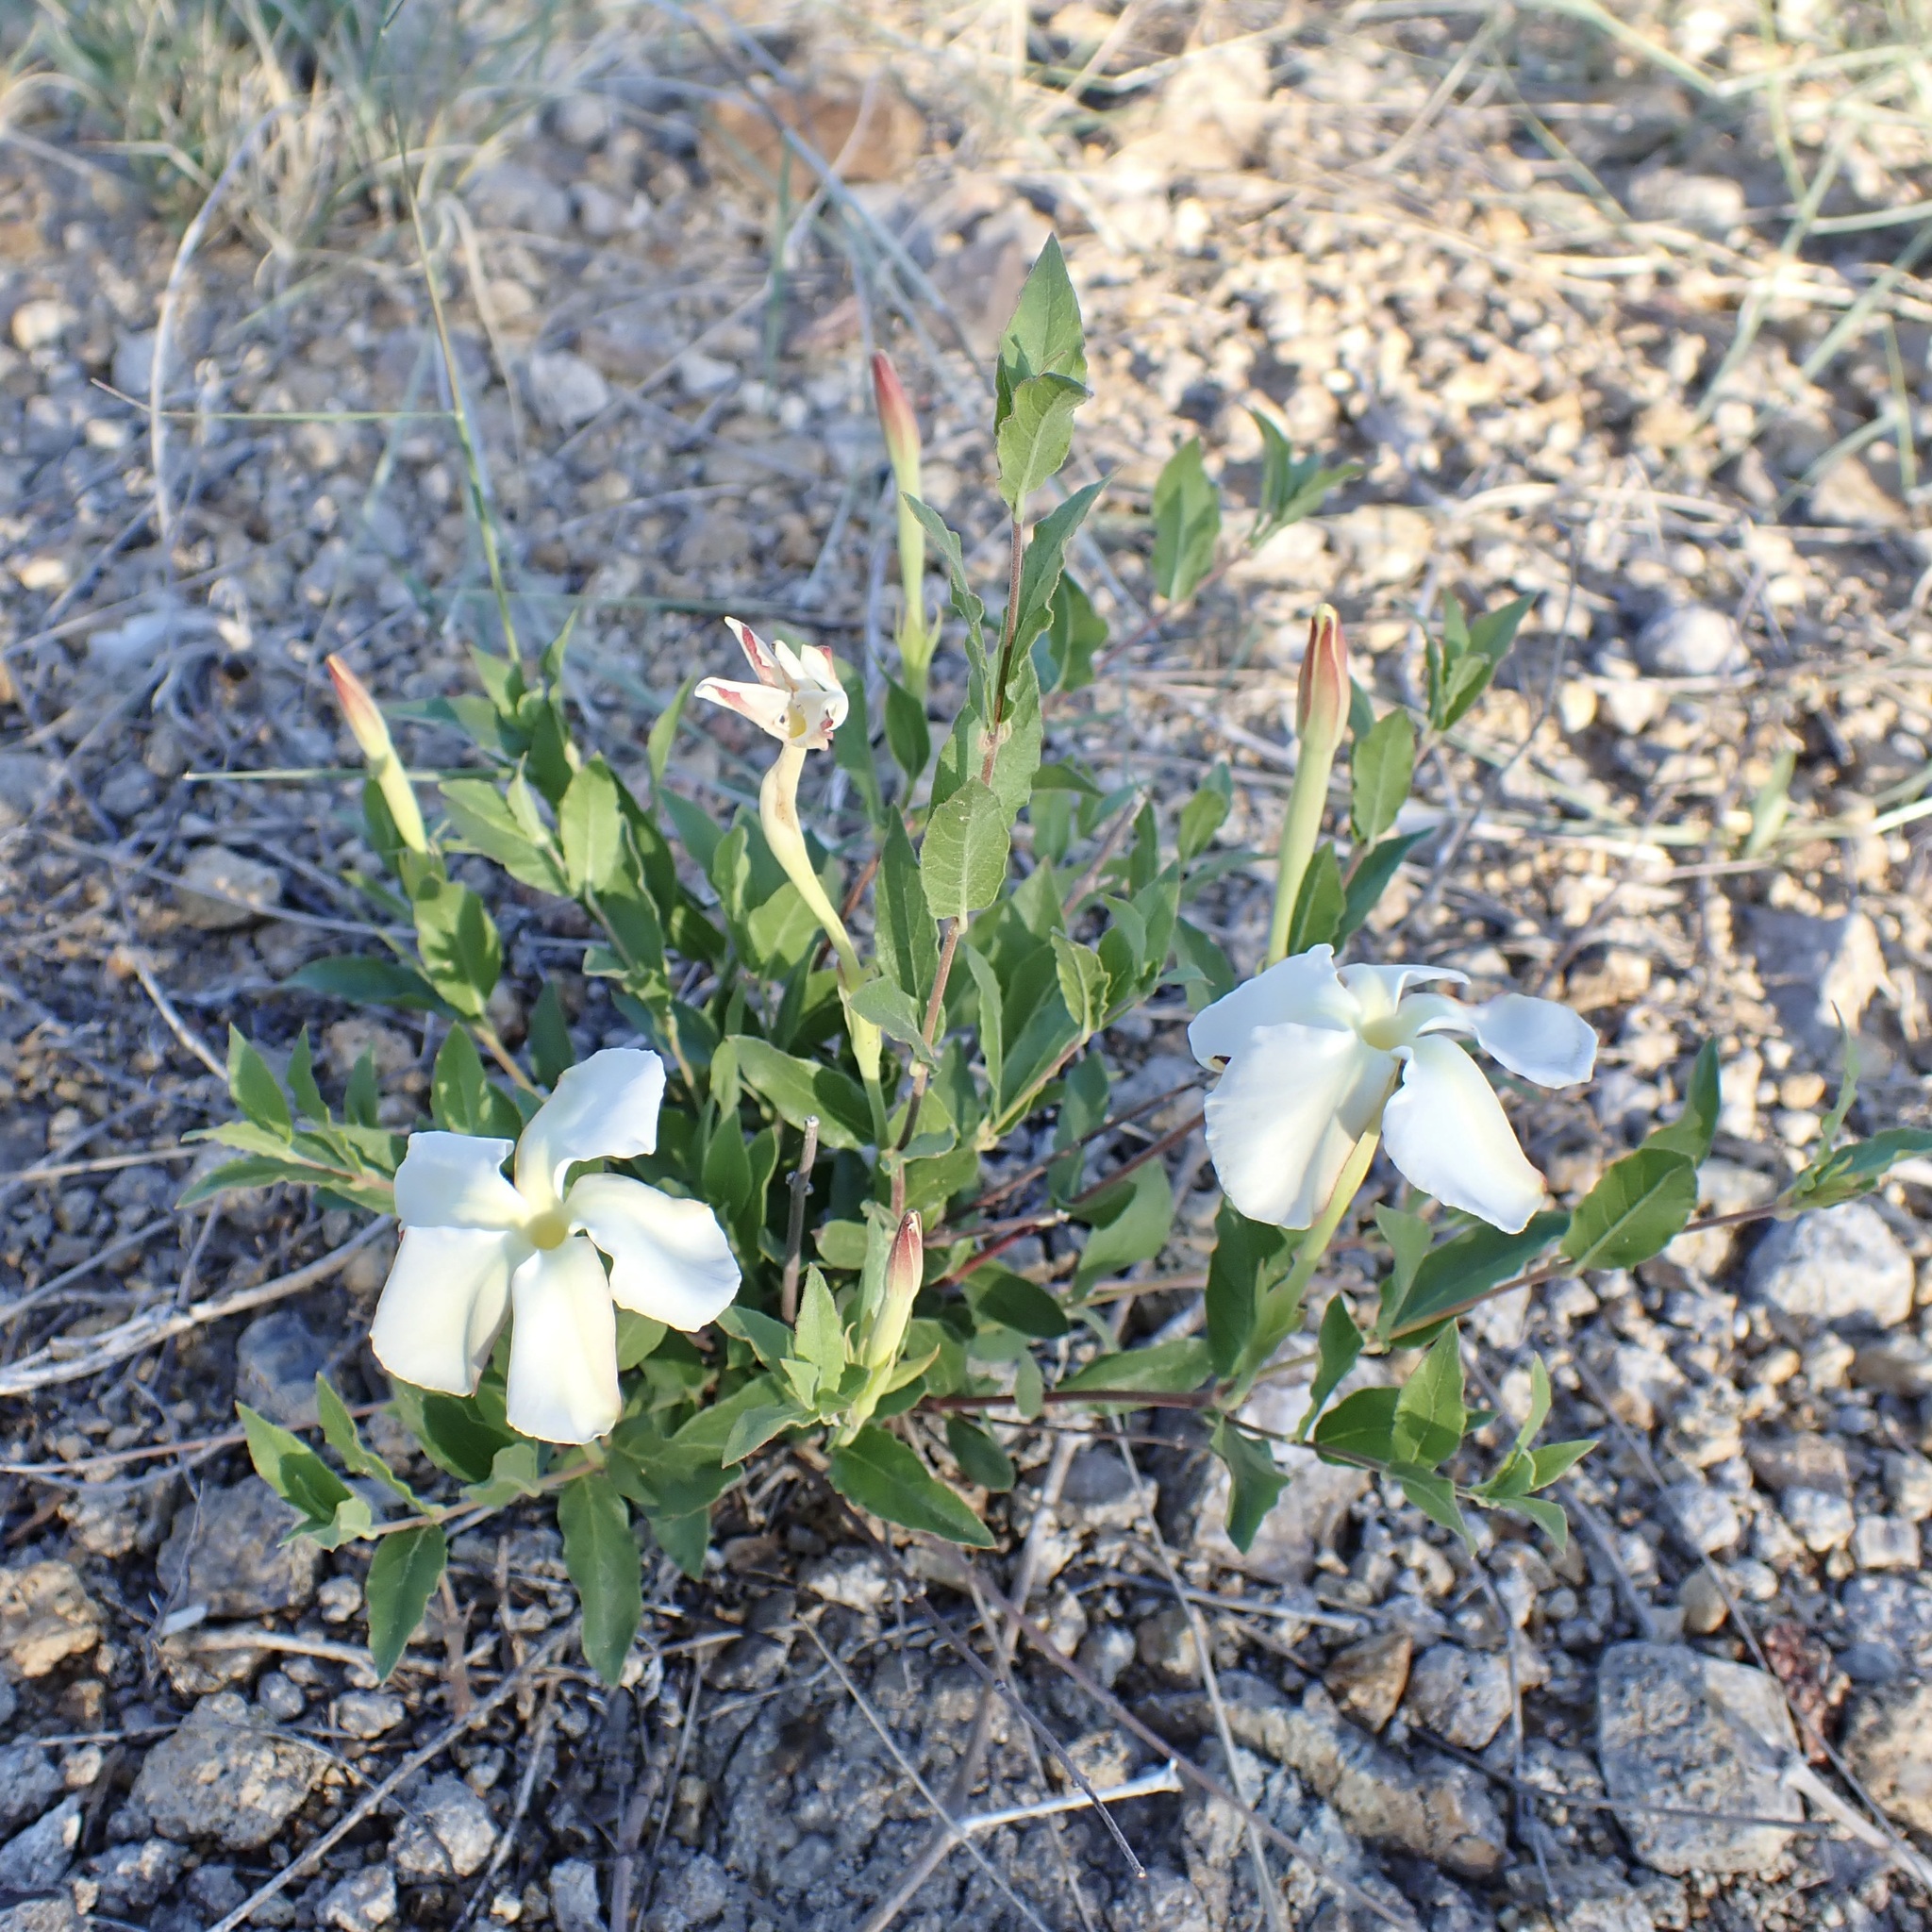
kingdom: Plantae
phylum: Tracheophyta
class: Magnoliopsida
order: Gentianales
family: Apocynaceae
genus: Mandevilla
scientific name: Mandevilla brachysiphon
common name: Huachuca mountain rocktrumpet
